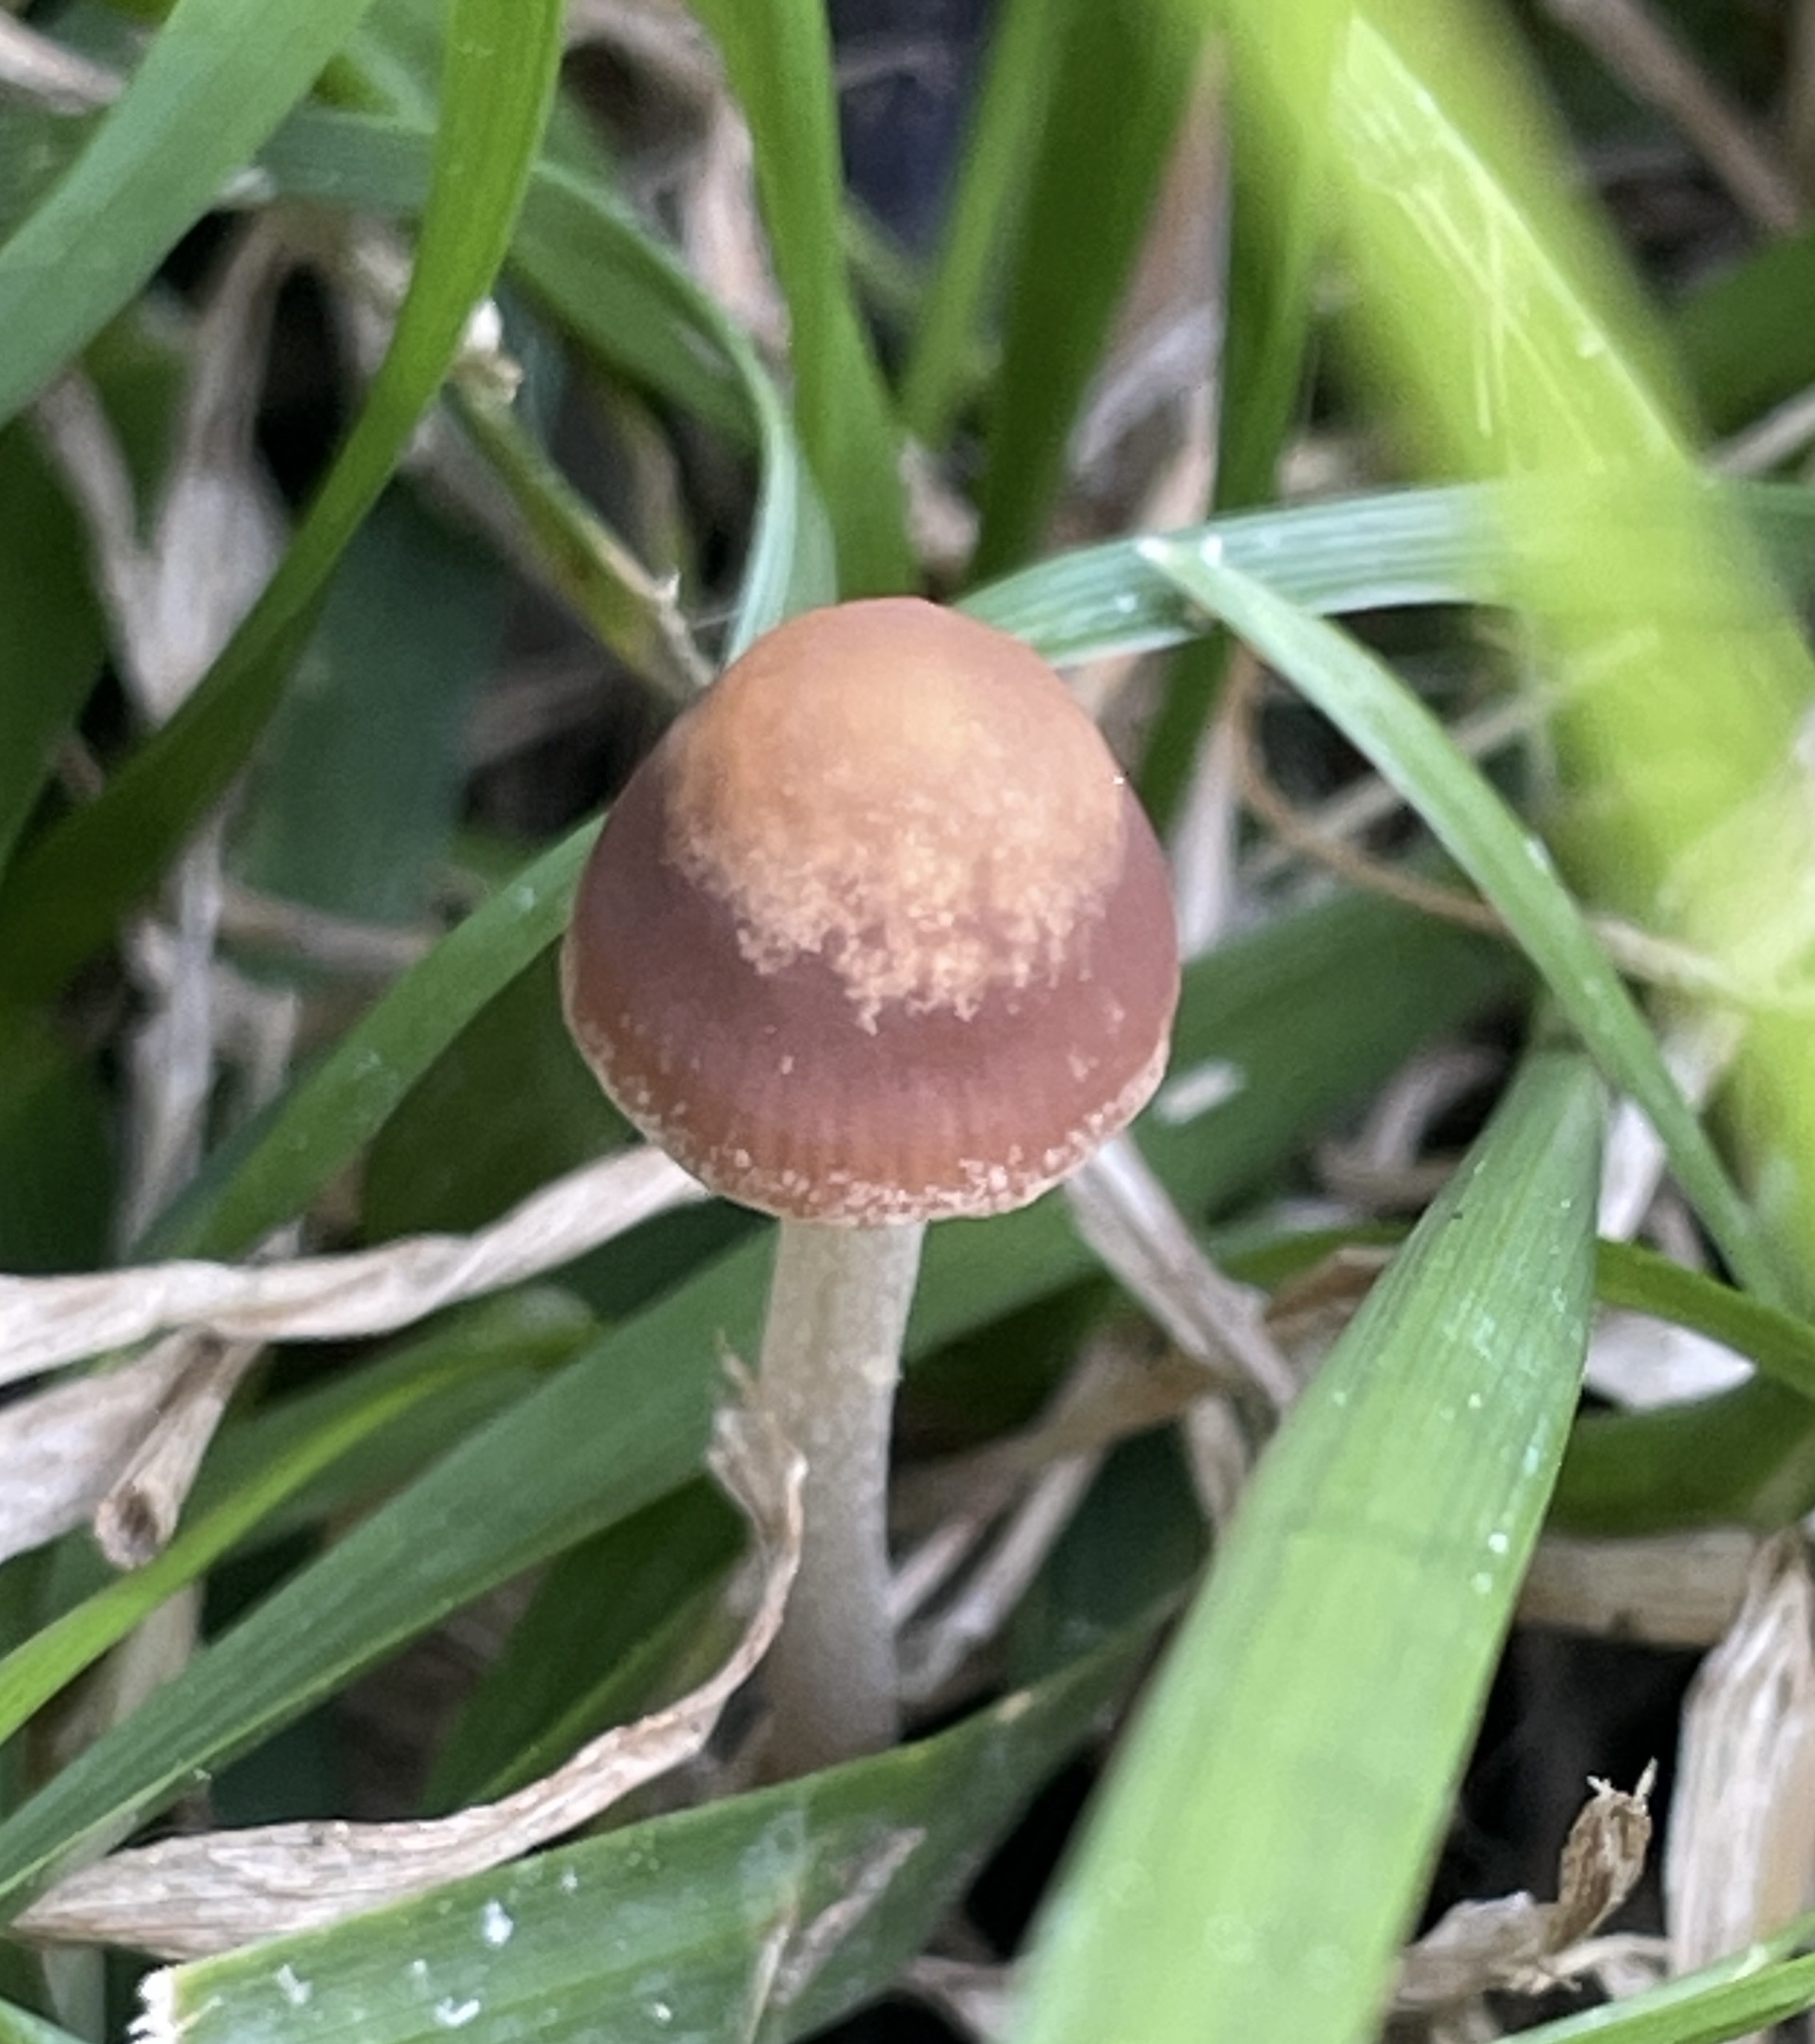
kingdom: Fungi
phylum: Basidiomycota
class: Agaricomycetes
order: Agaricales
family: Bolbitiaceae
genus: Panaeolina
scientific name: Panaeolina foenisecii
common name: Brown hay cap
